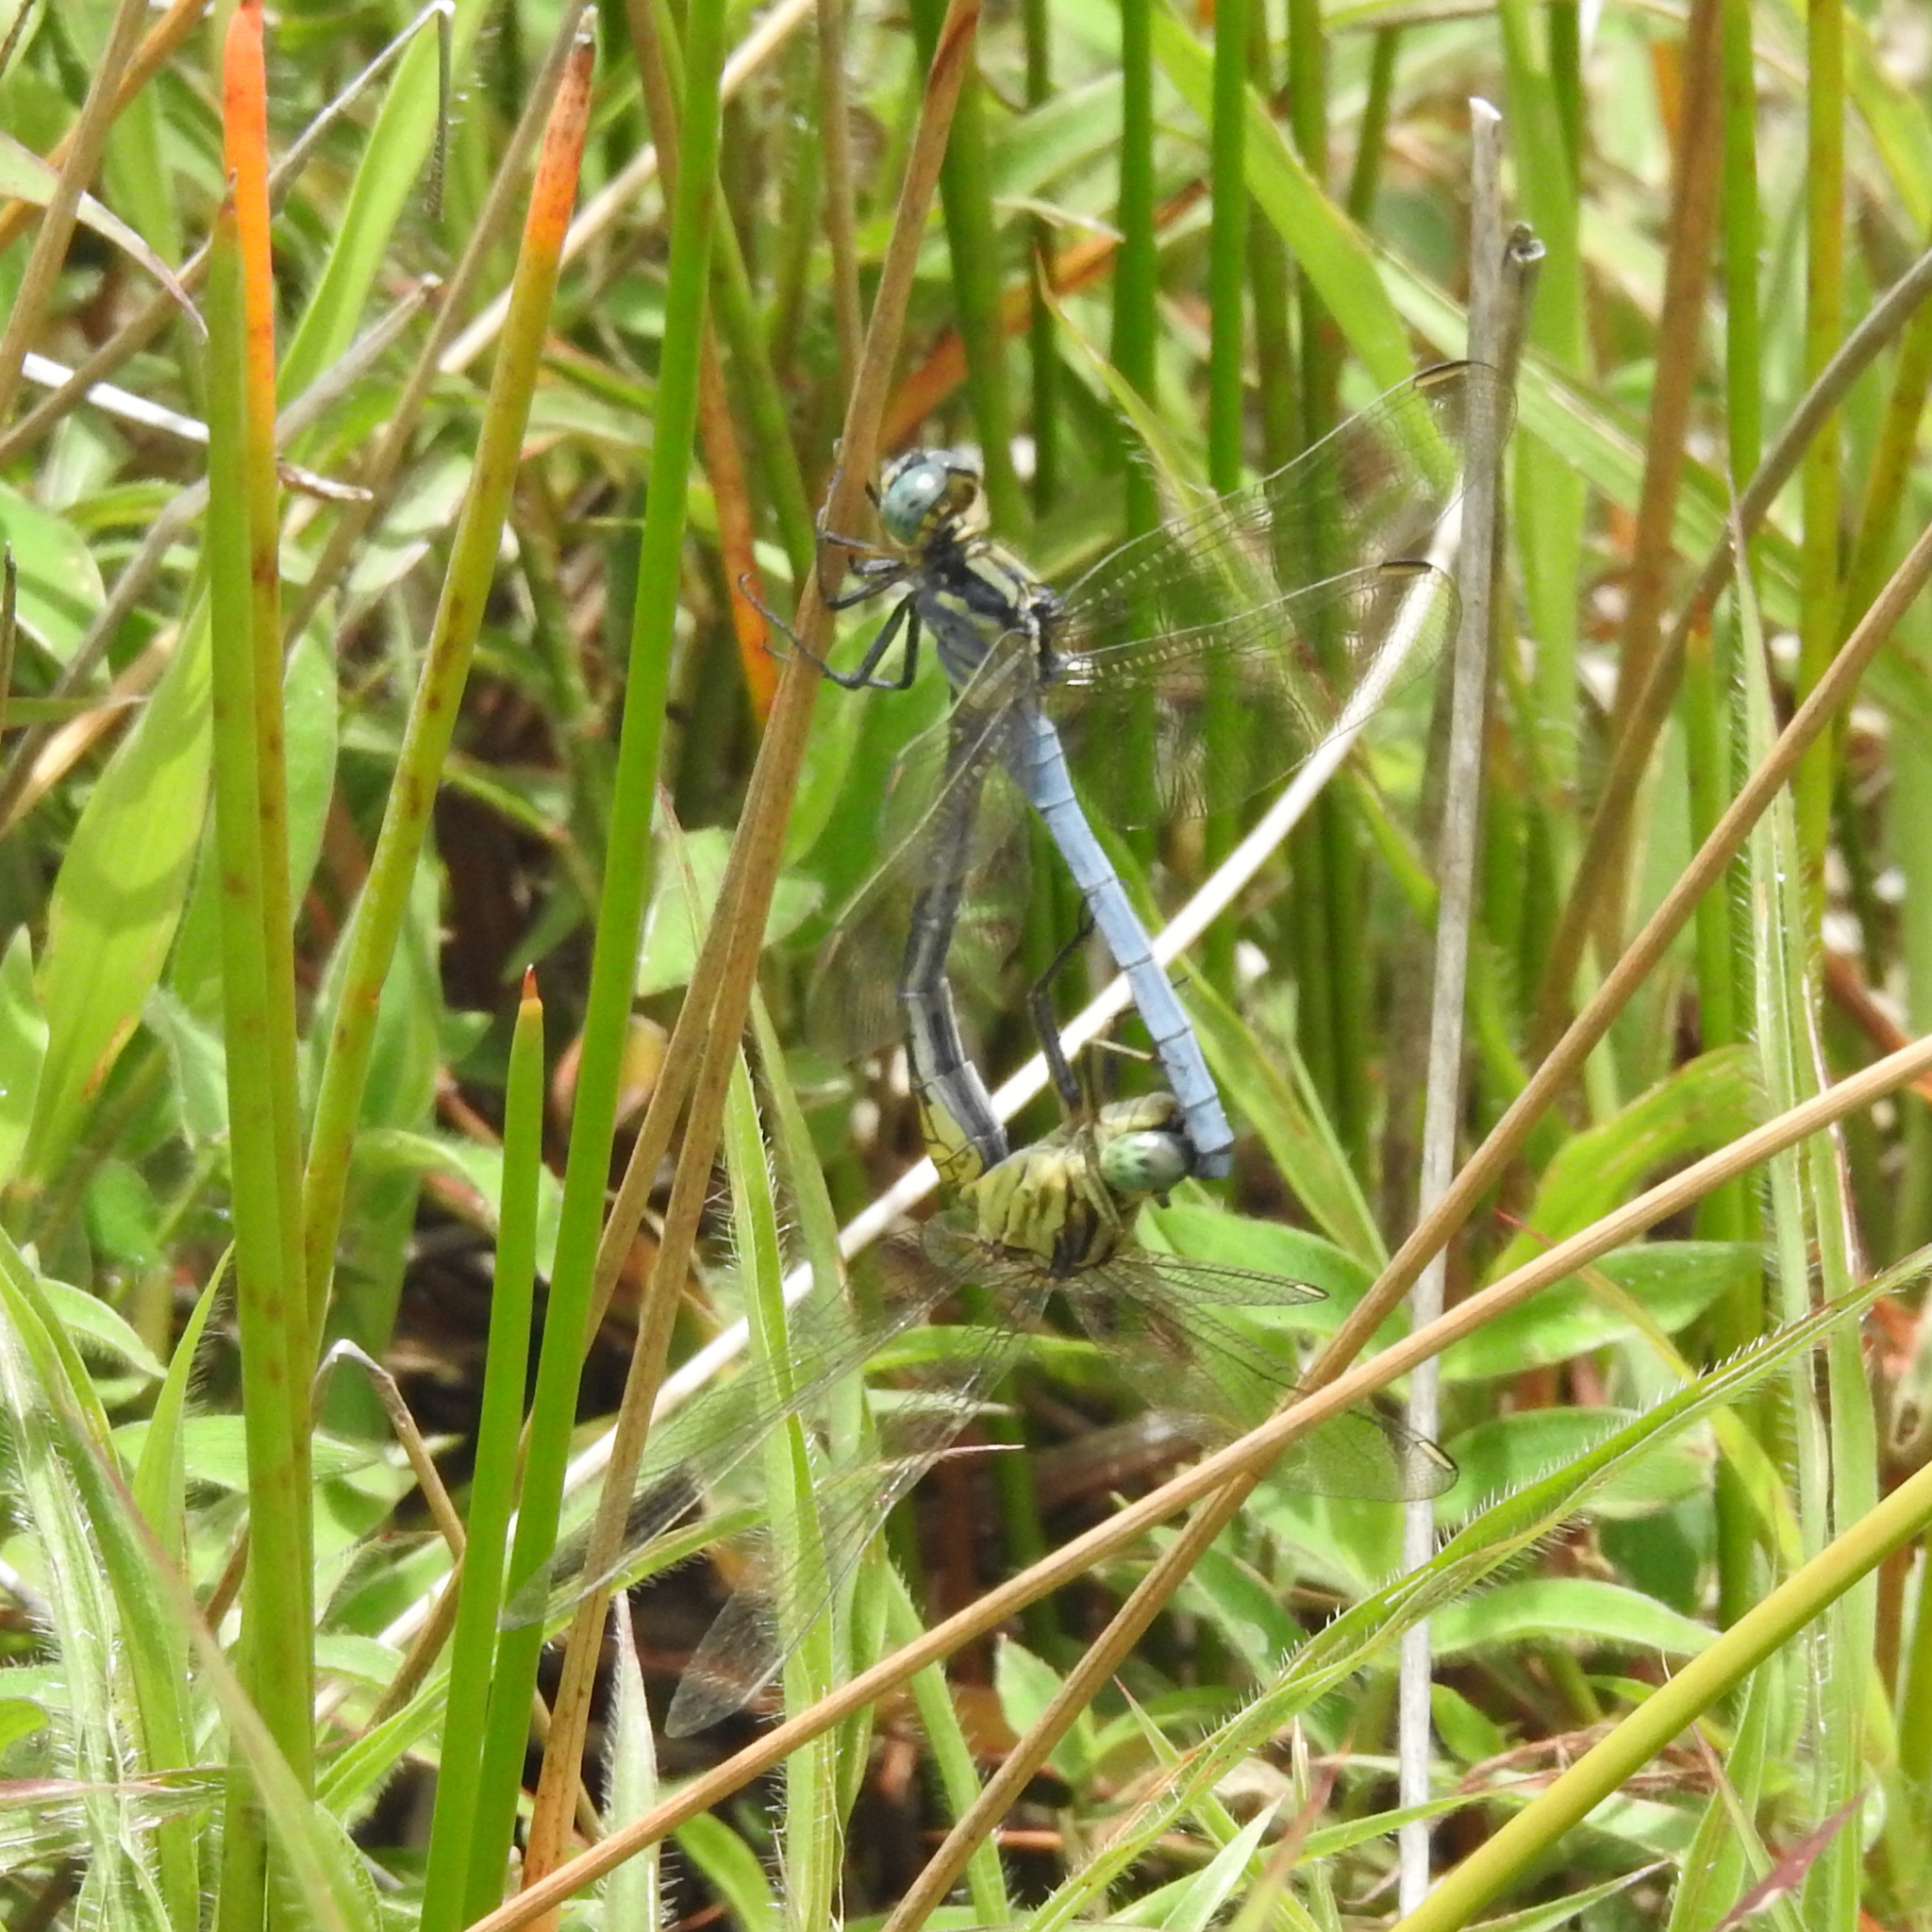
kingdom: Animalia
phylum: Arthropoda
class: Insecta
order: Odonata
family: Libellulidae
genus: Orthetrum
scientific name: Orthetrum luzonicum
